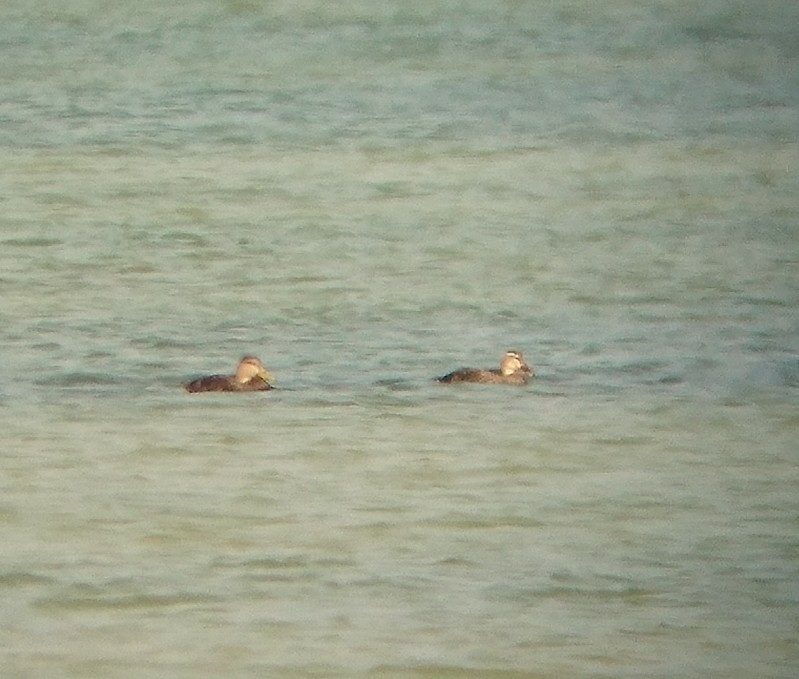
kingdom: Animalia
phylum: Chordata
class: Aves
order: Anseriformes
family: Anatidae
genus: Anas
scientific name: Anas fulvigula
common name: Mottled duck
